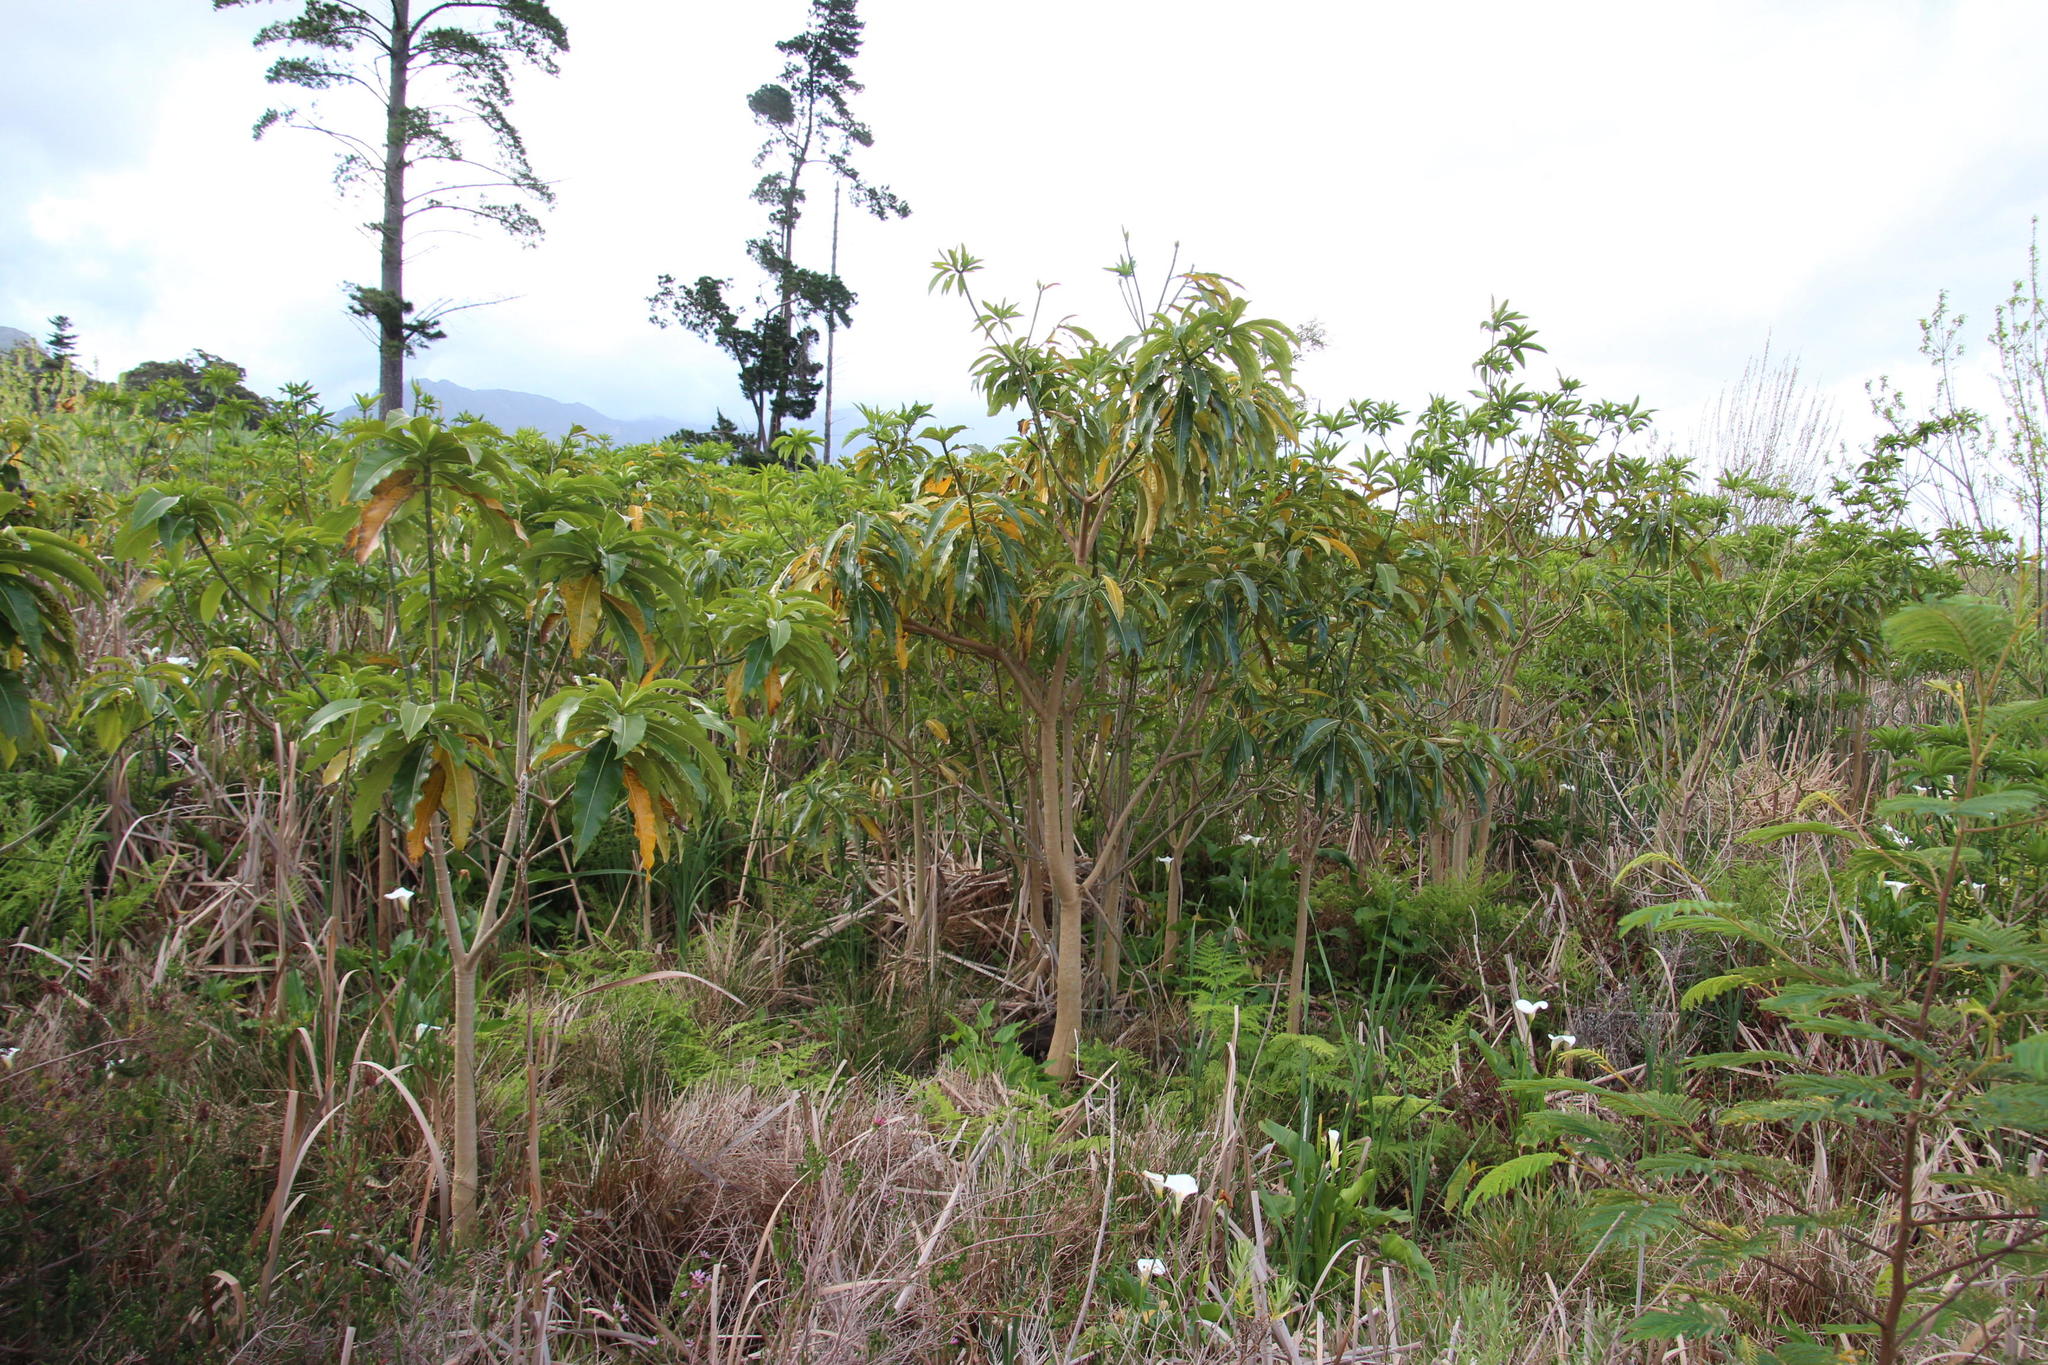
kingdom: Plantae
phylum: Tracheophyta
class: Magnoliopsida
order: Gentianales
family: Apocynaceae
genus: Rauvolfia
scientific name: Rauvolfia caffra
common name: Quininetree
